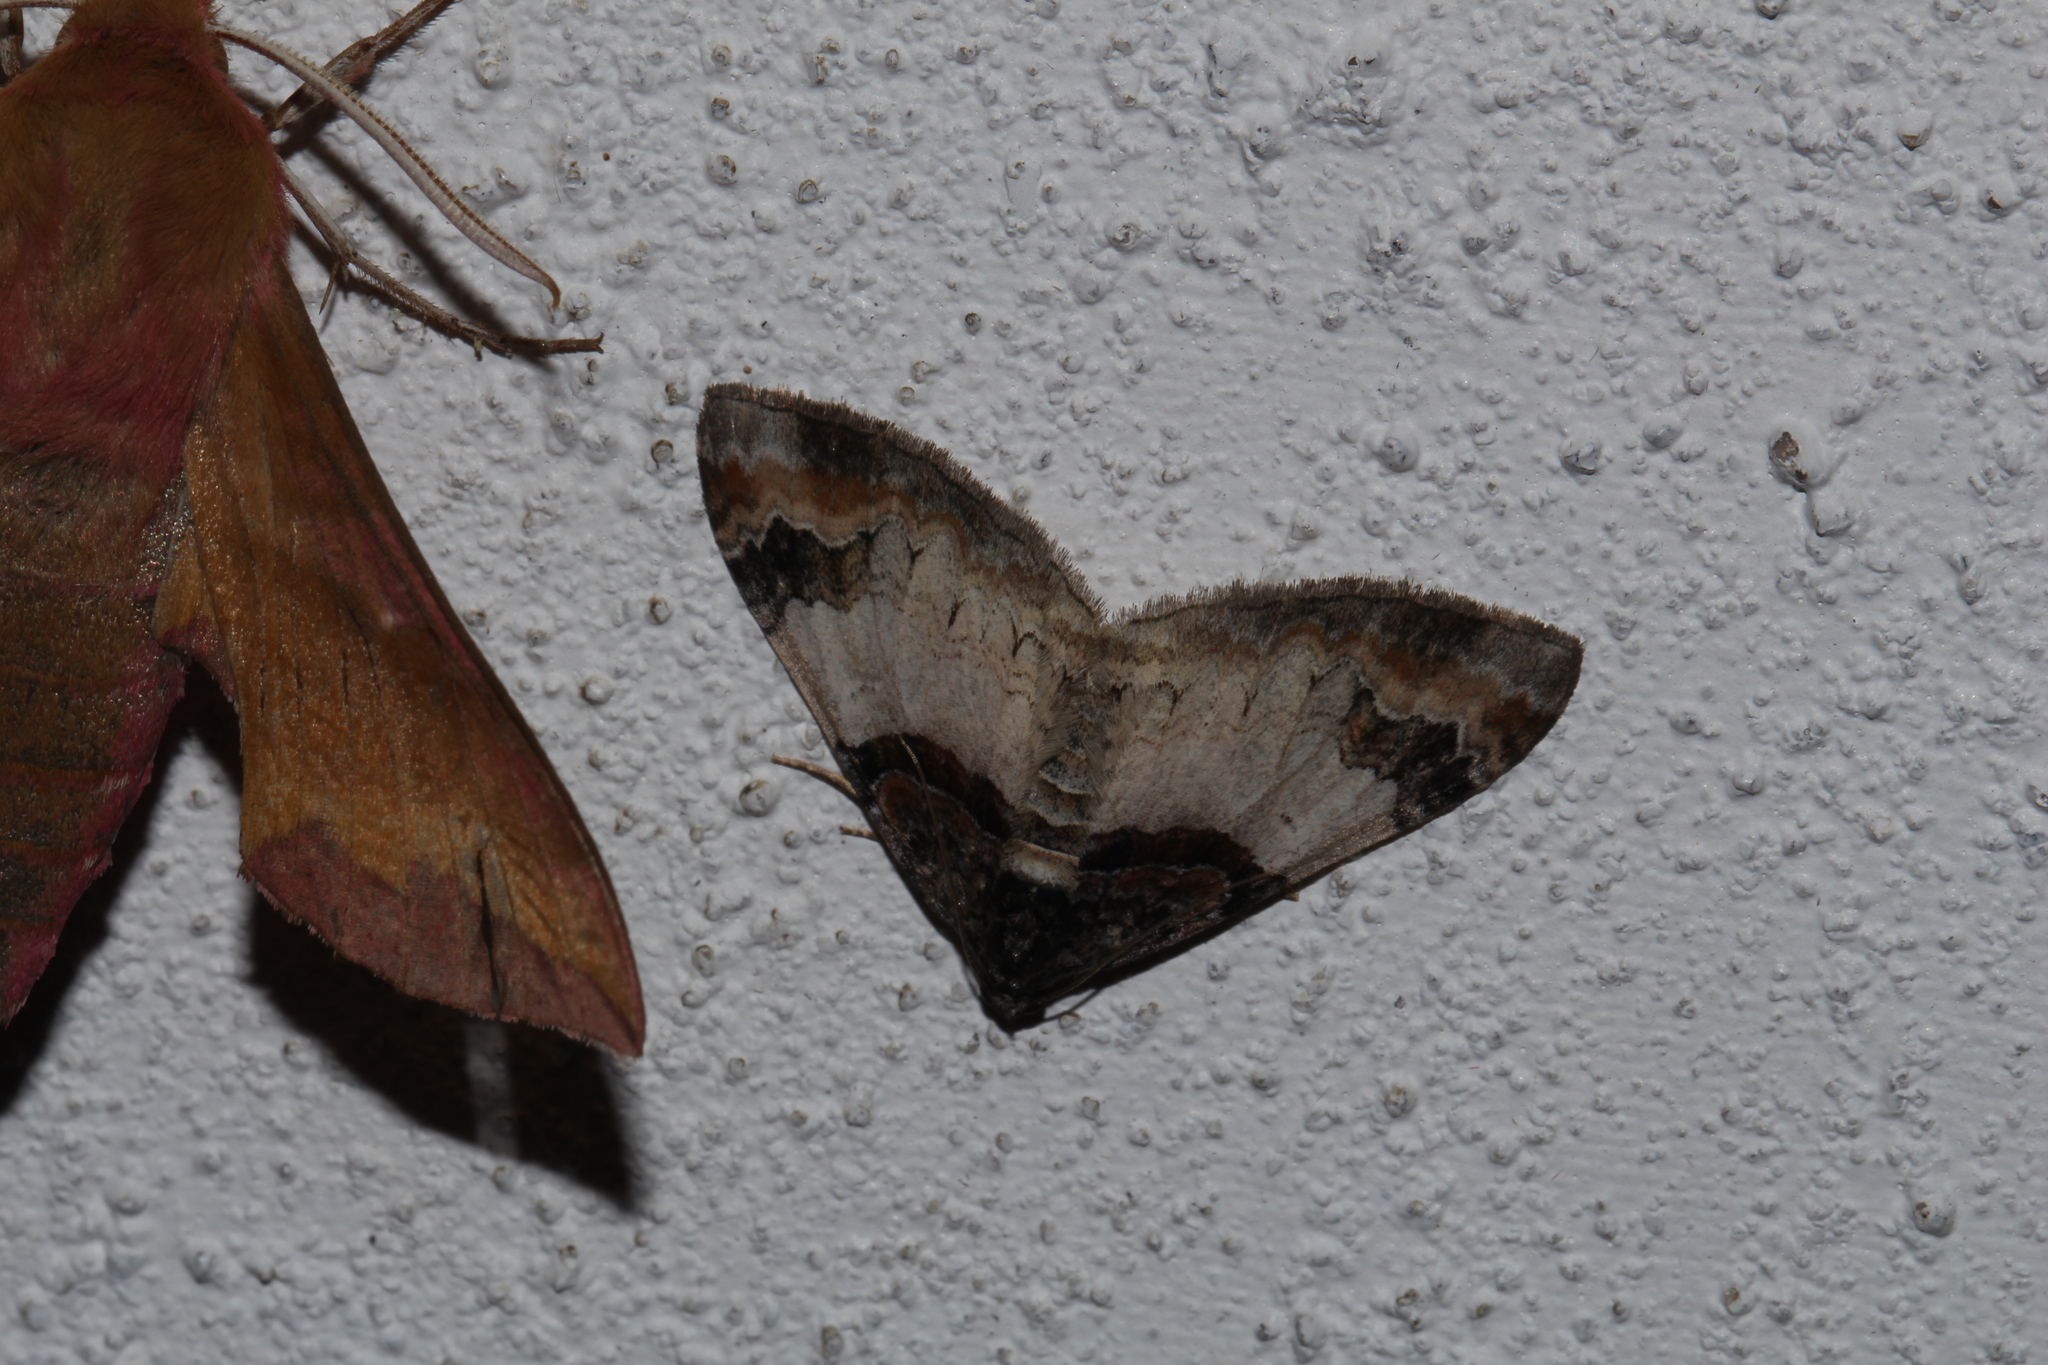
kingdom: Animalia
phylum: Arthropoda
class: Insecta
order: Lepidoptera
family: Geometridae
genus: Catarhoe
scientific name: Catarhoe cuculata
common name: Royal mantle
